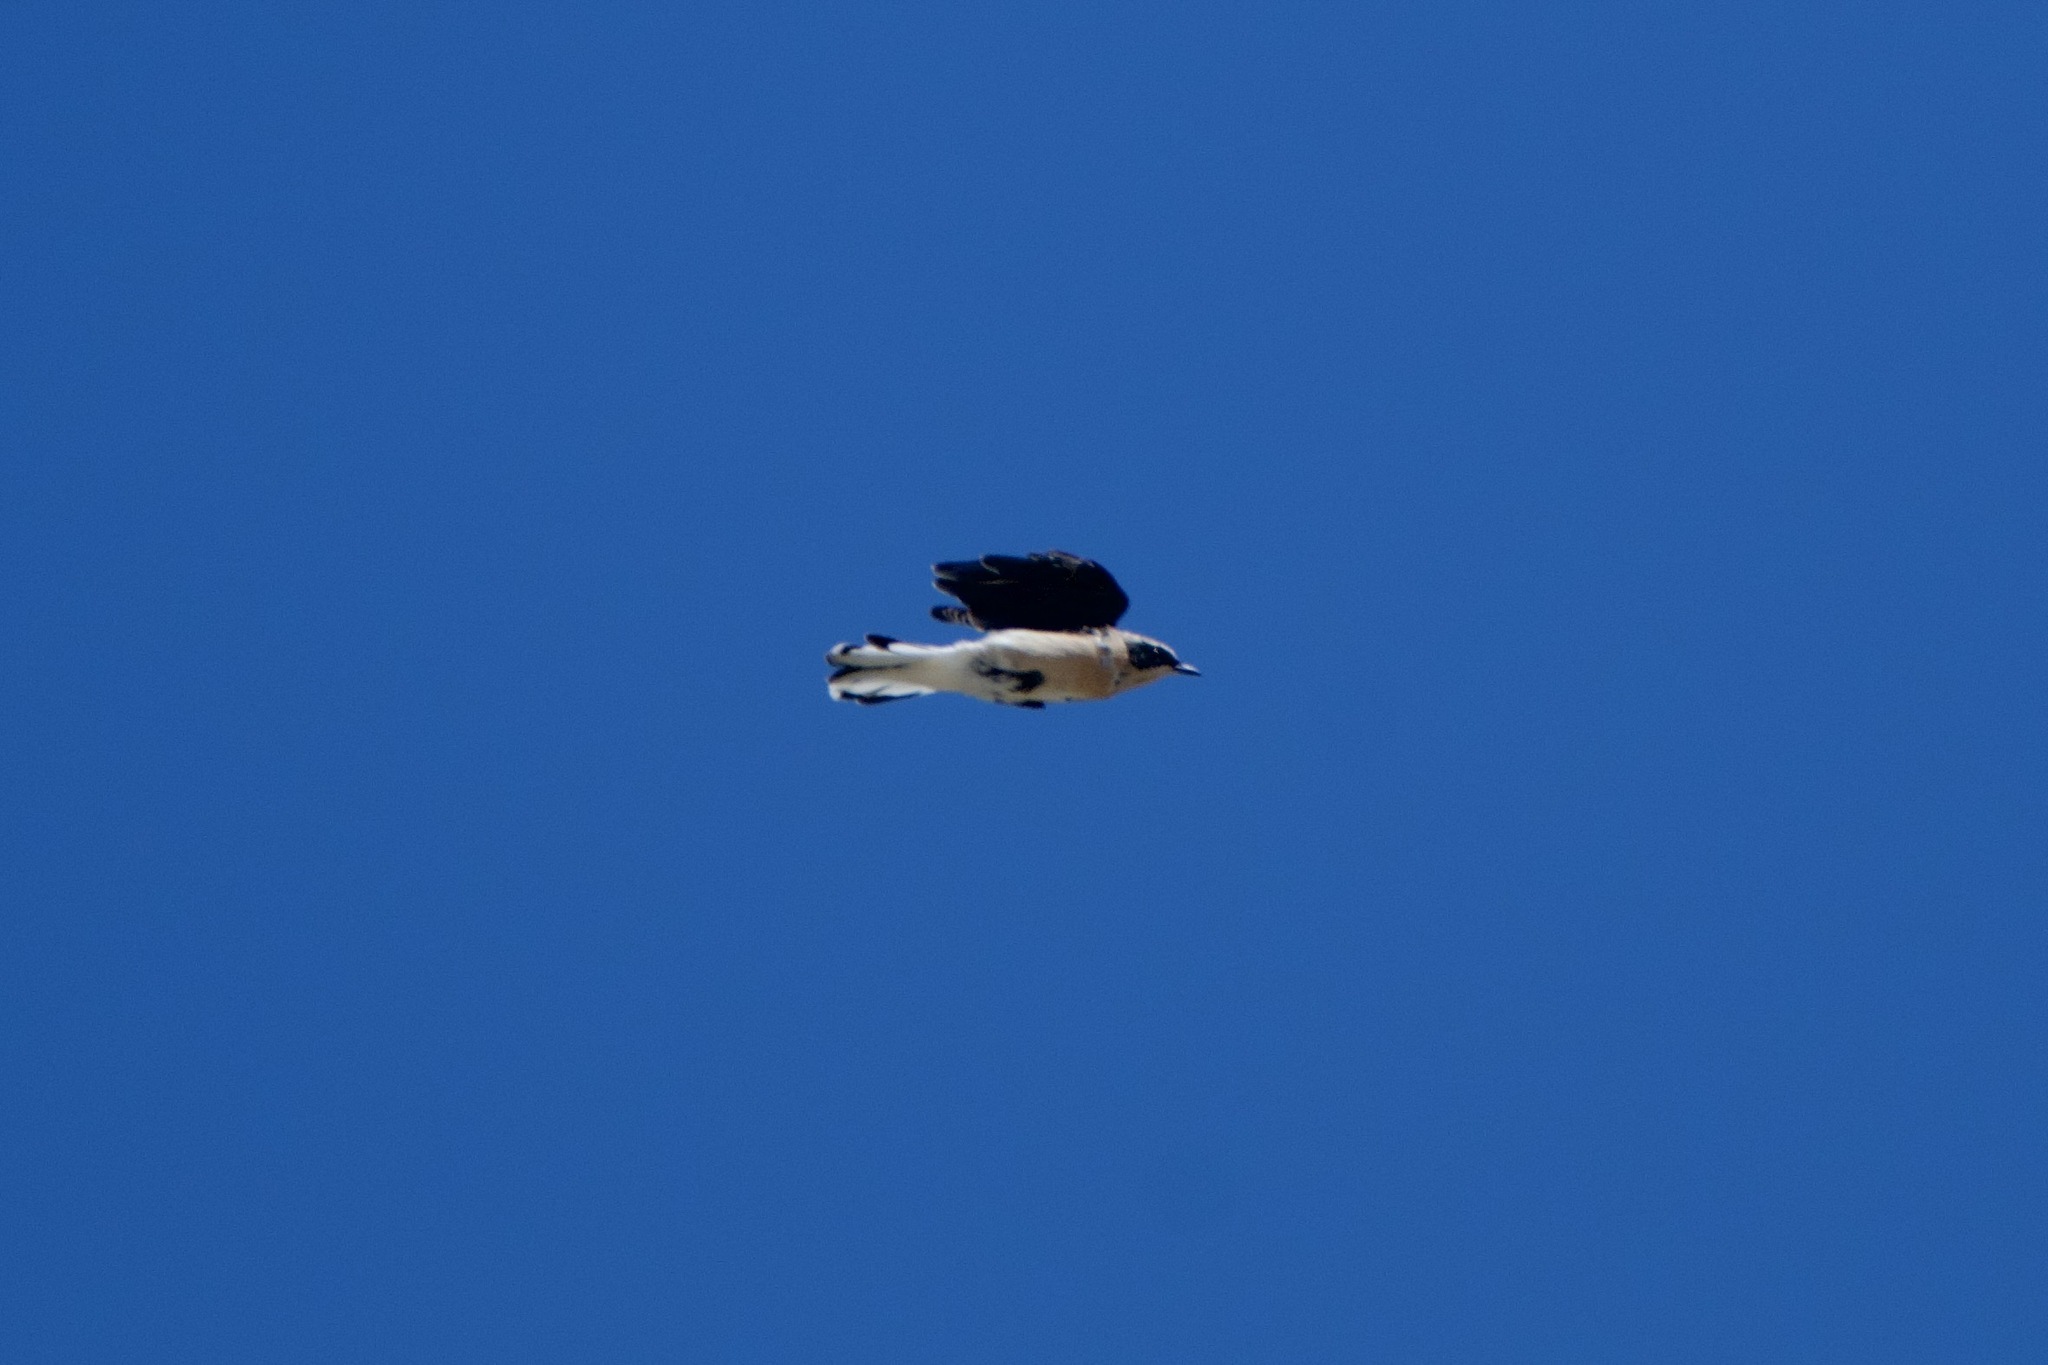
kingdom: Animalia
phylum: Chordata
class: Aves
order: Passeriformes
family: Muscicapidae
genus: Oenanthe
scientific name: Oenanthe hispanica
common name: Black-eared wheatear
